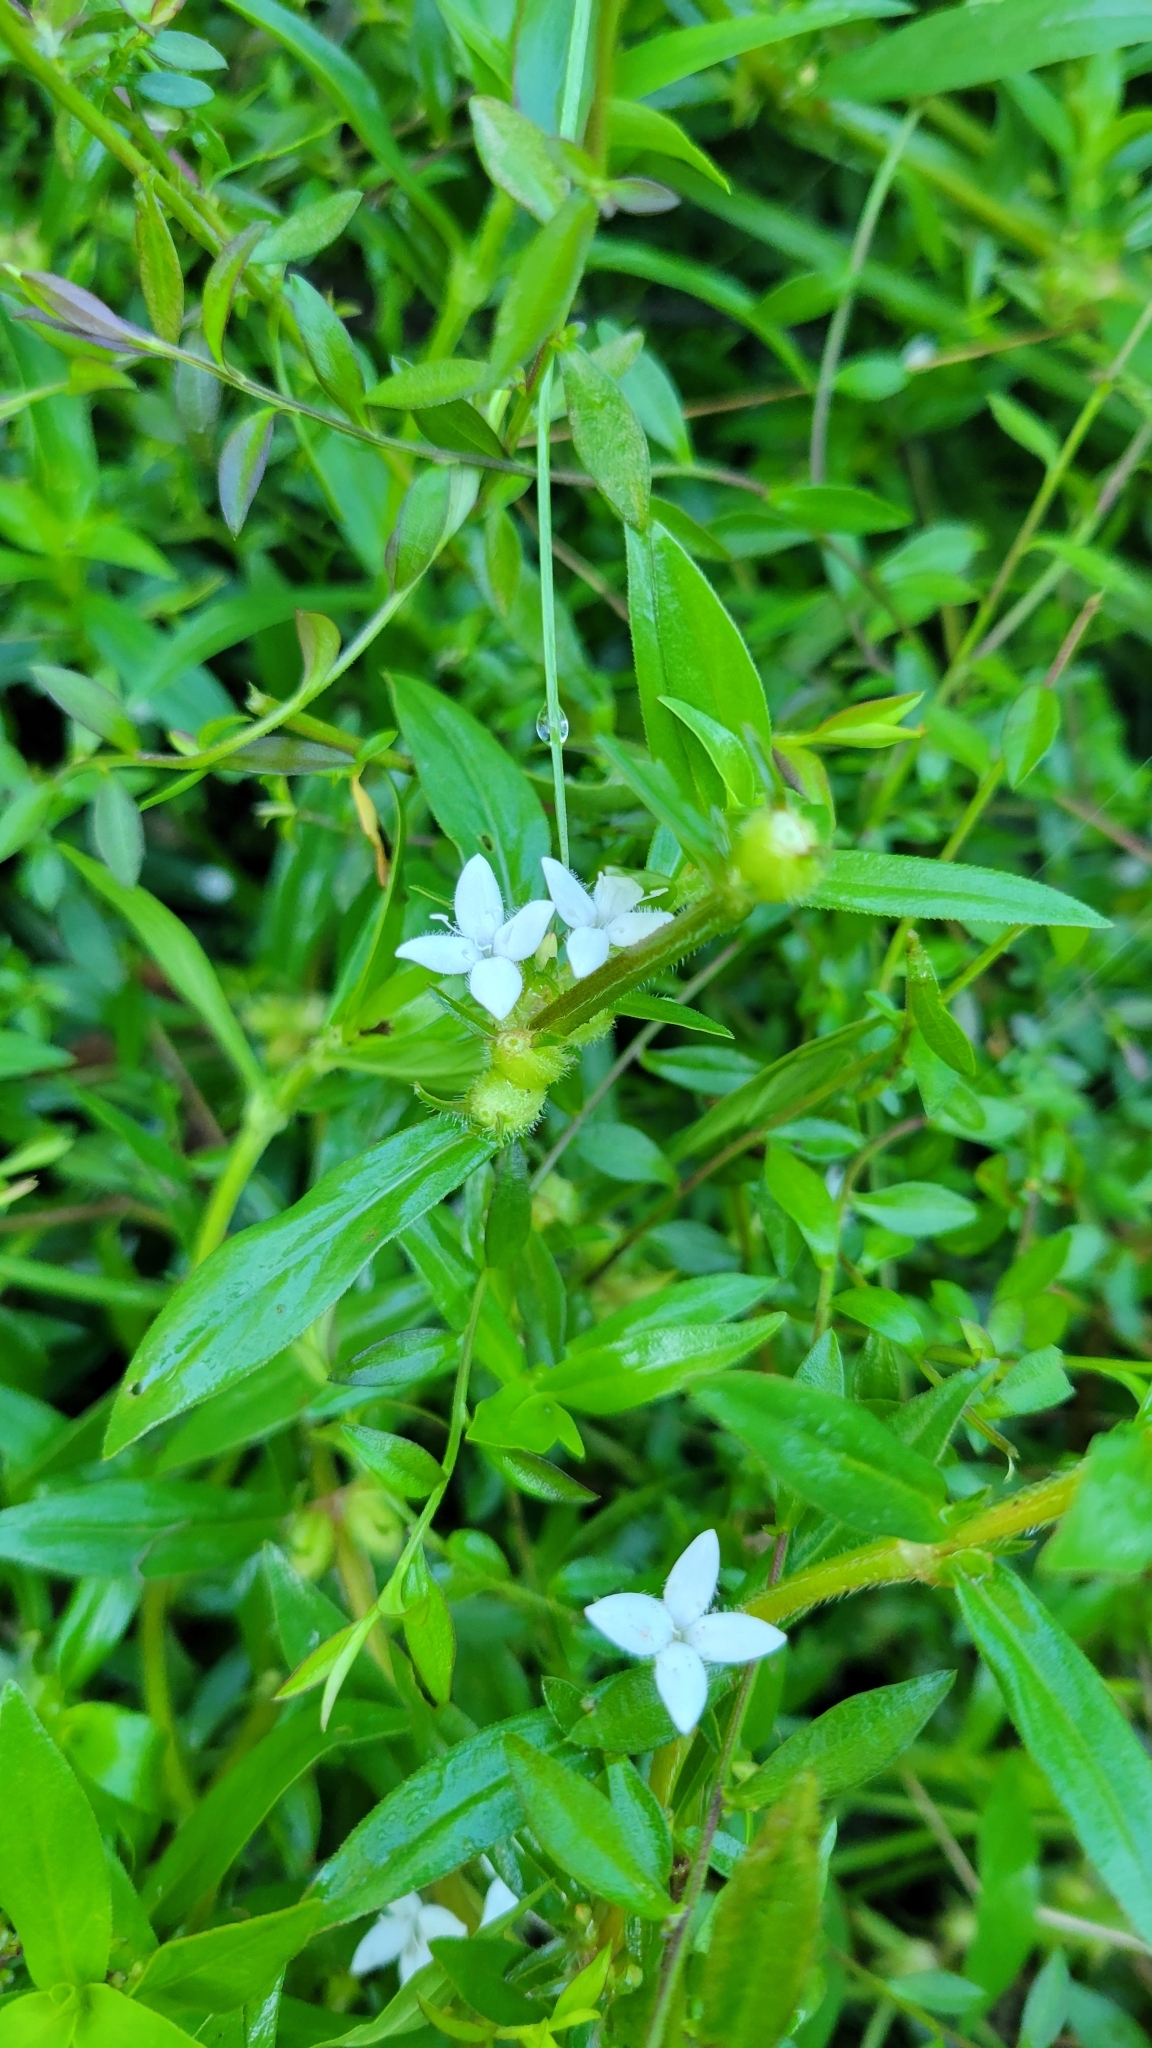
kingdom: Plantae
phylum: Tracheophyta
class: Magnoliopsida
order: Gentianales
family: Rubiaceae
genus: Diodia
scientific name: Diodia virginiana
